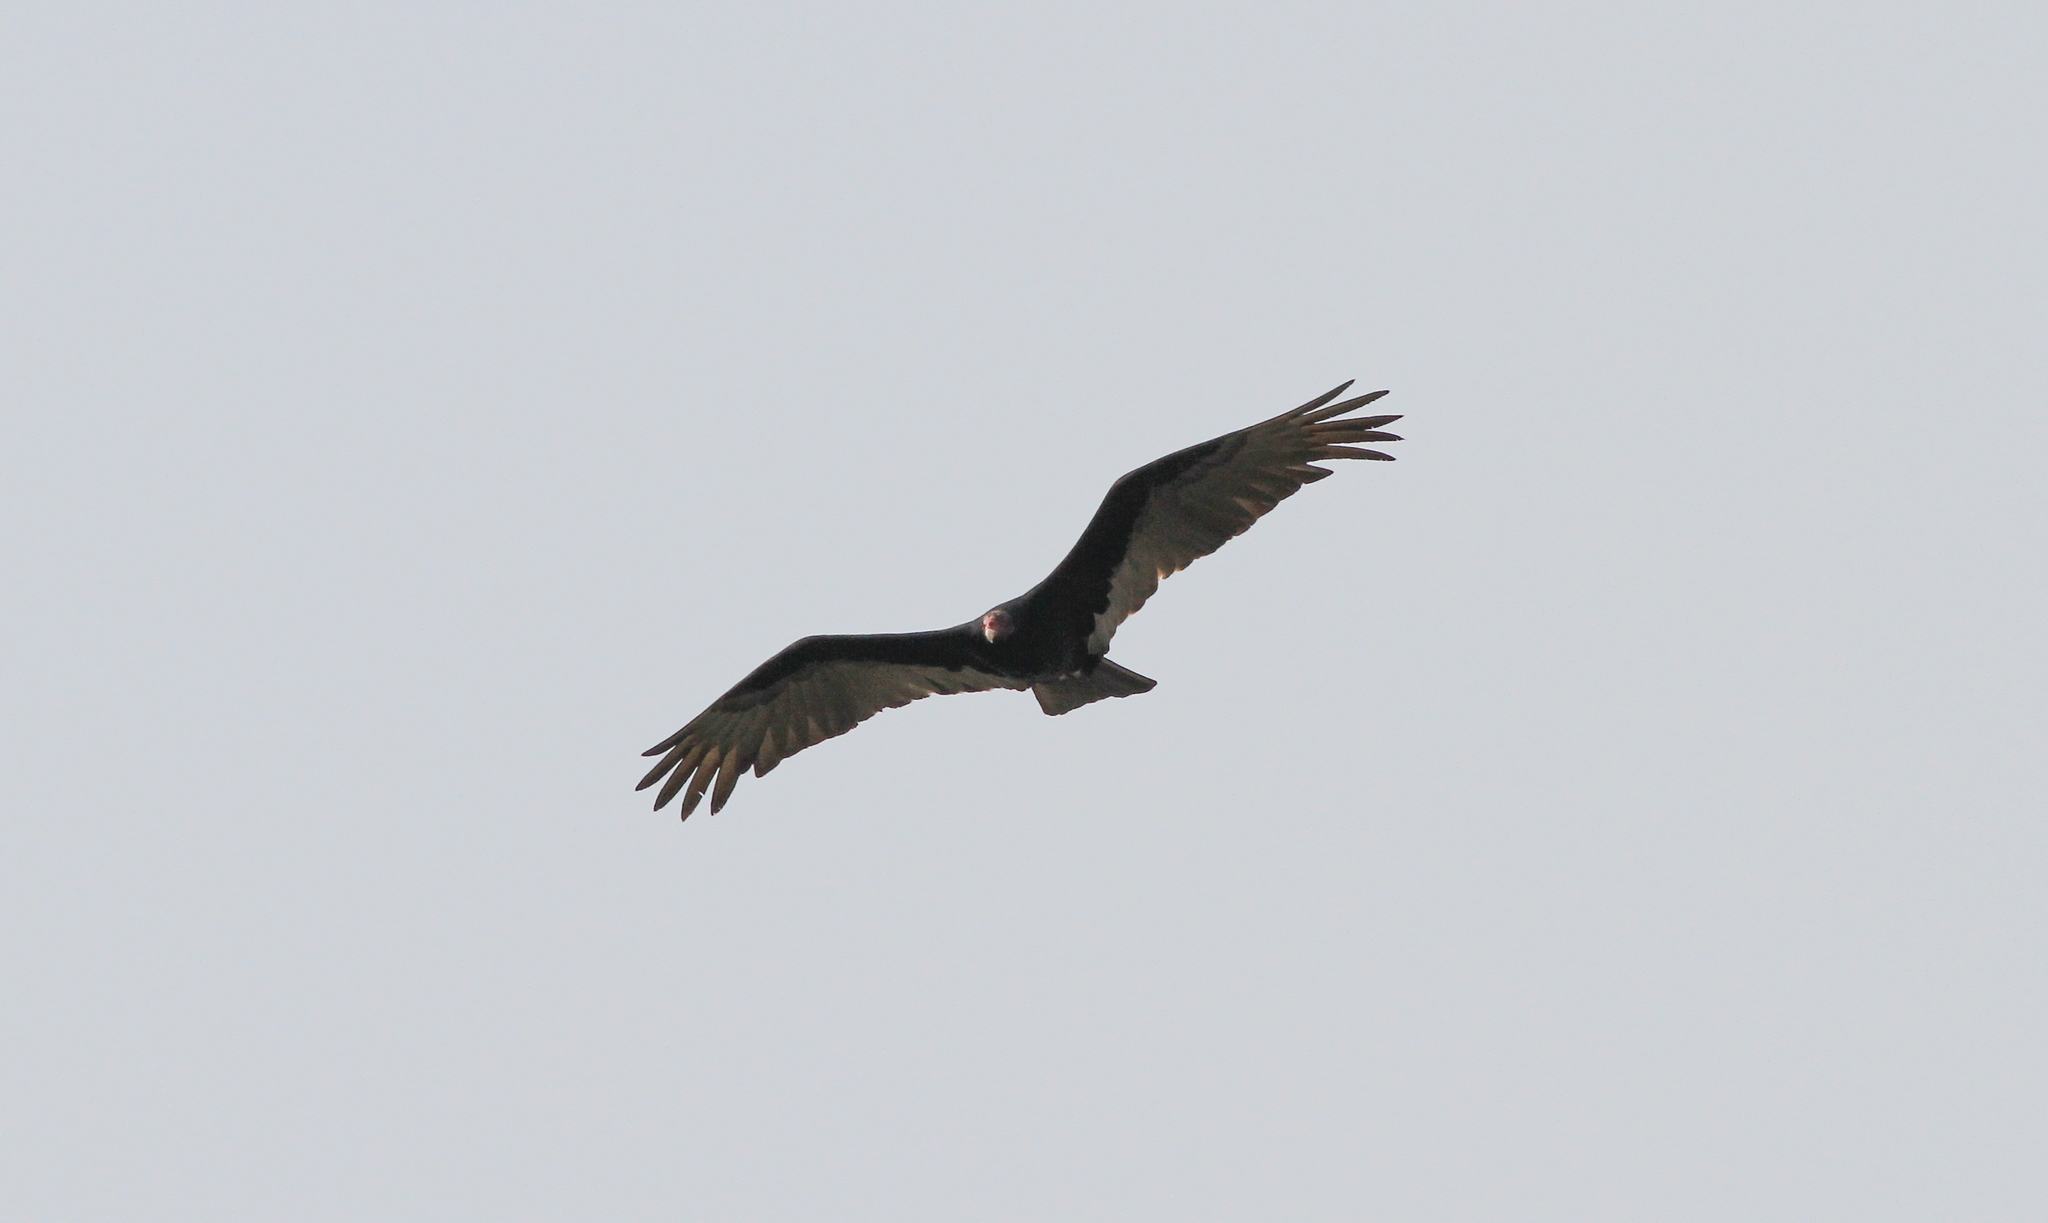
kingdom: Animalia
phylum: Chordata
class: Aves
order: Accipitriformes
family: Cathartidae
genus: Cathartes
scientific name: Cathartes aura
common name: Turkey vulture
